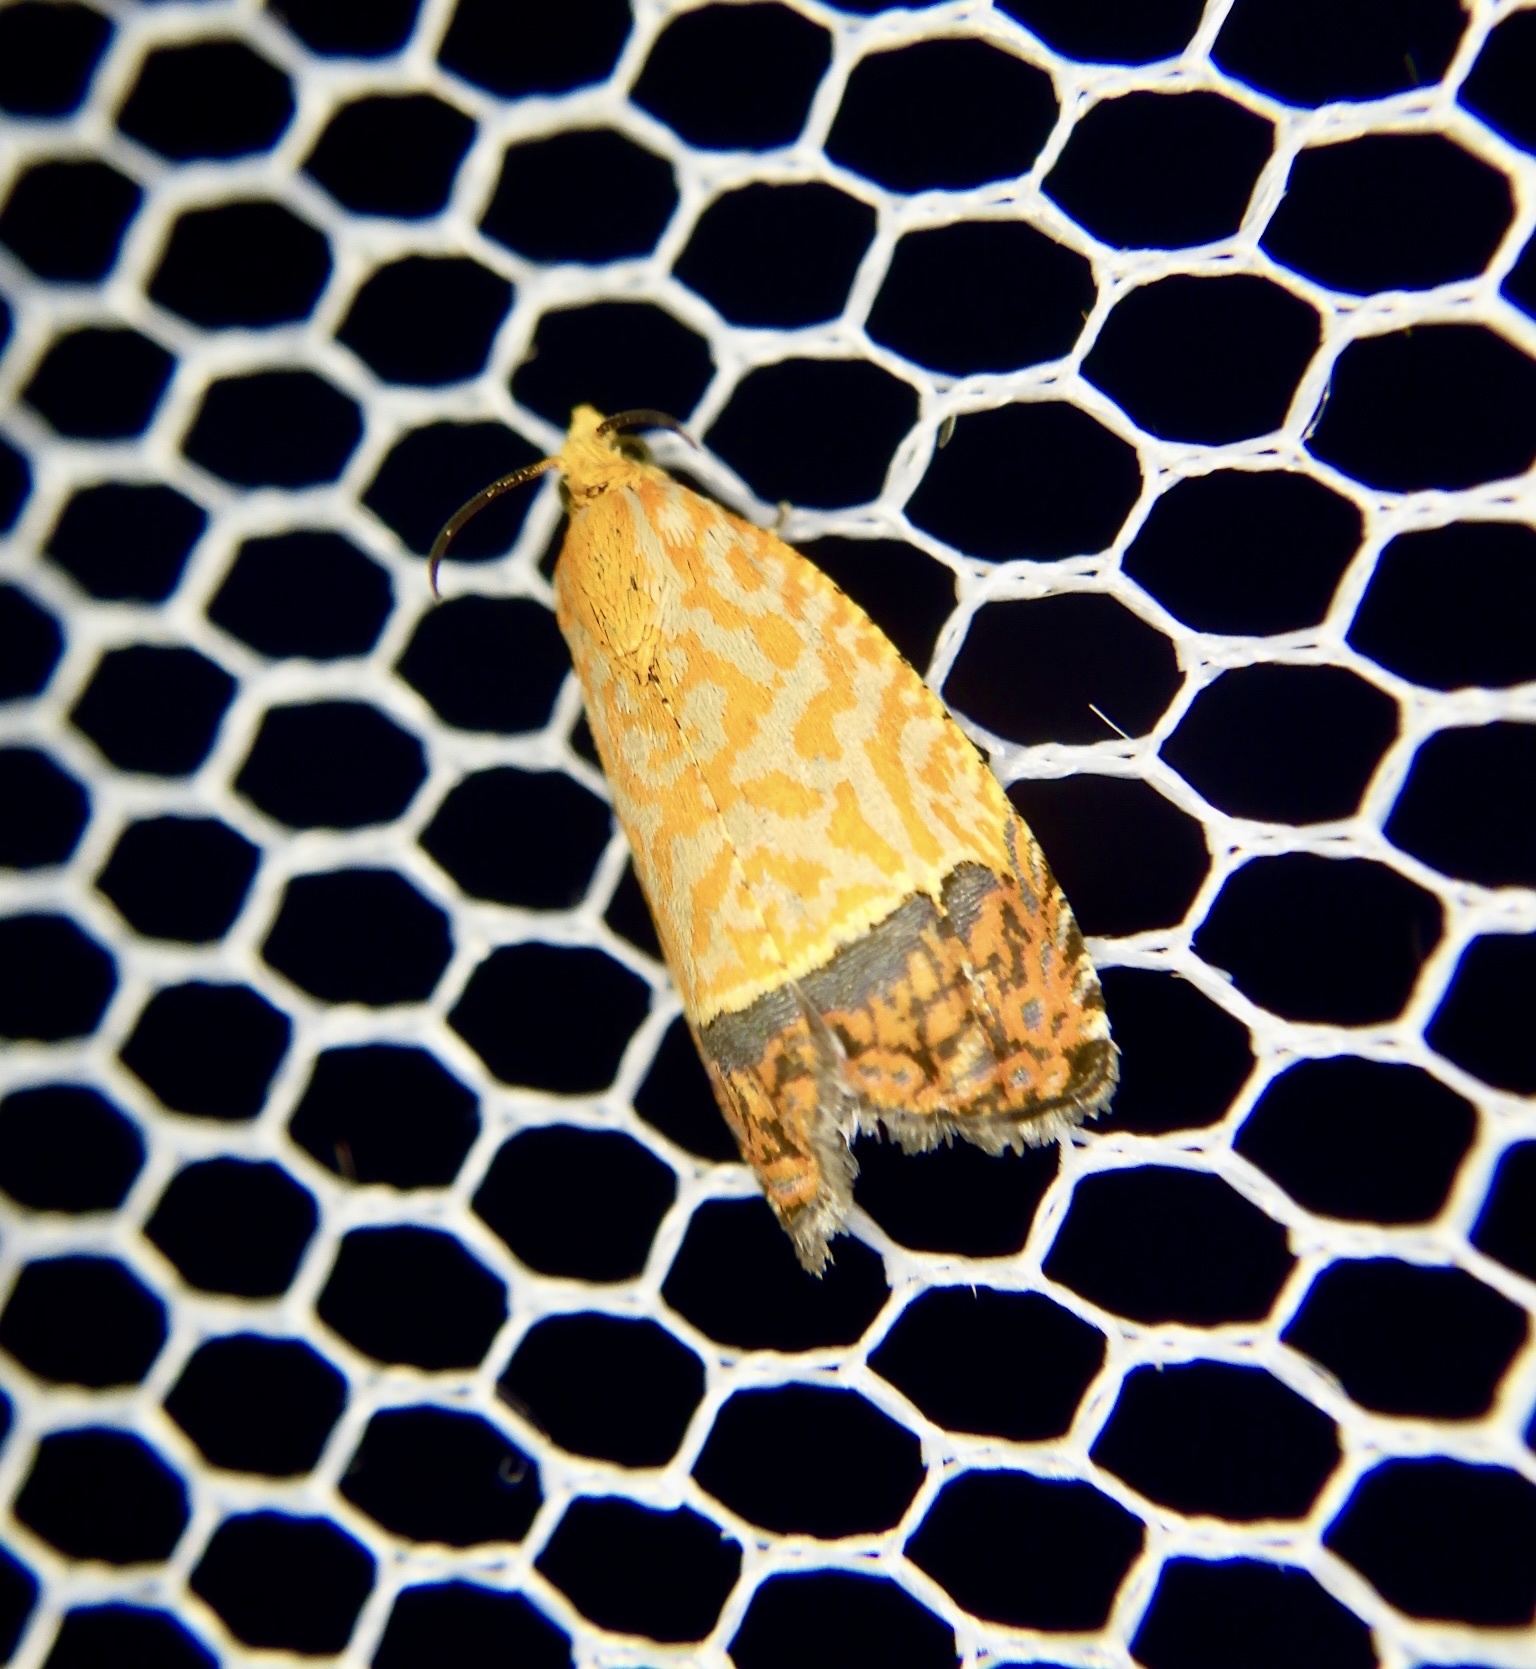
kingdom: Animalia
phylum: Arthropoda
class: Insecta
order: Lepidoptera
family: Tortricidae
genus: Loboschiza
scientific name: Loboschiza koenigiana
